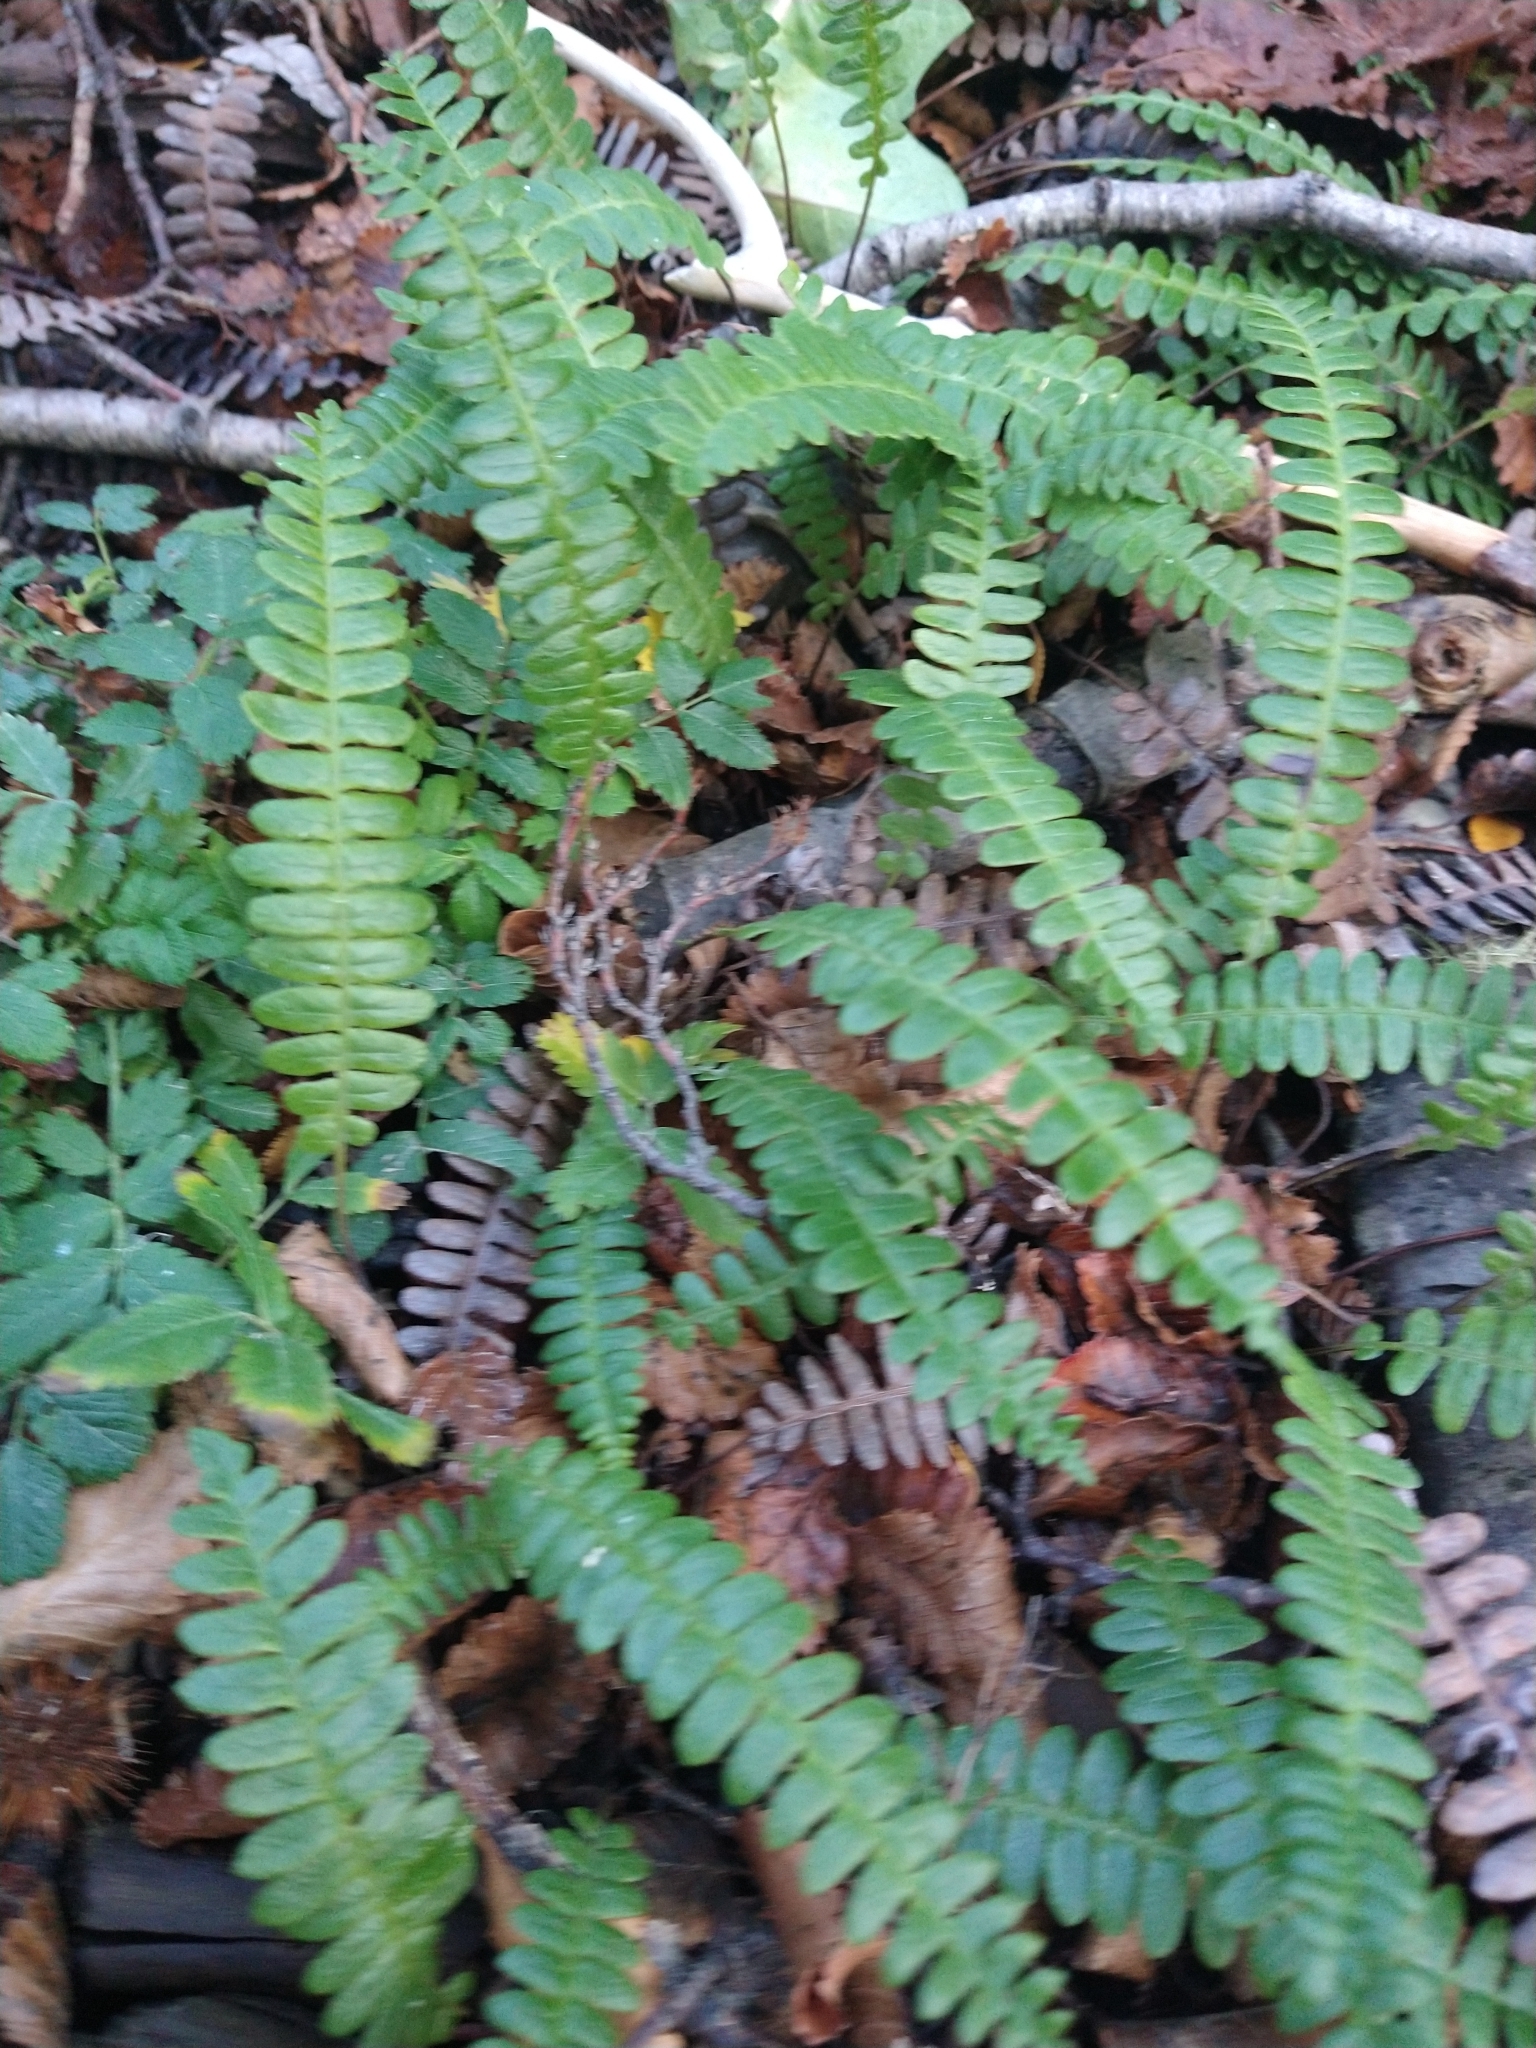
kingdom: Plantae
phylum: Tracheophyta
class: Polypodiopsida
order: Polypodiales
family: Blechnaceae
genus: Austroblechnum
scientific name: Austroblechnum penna-marina
